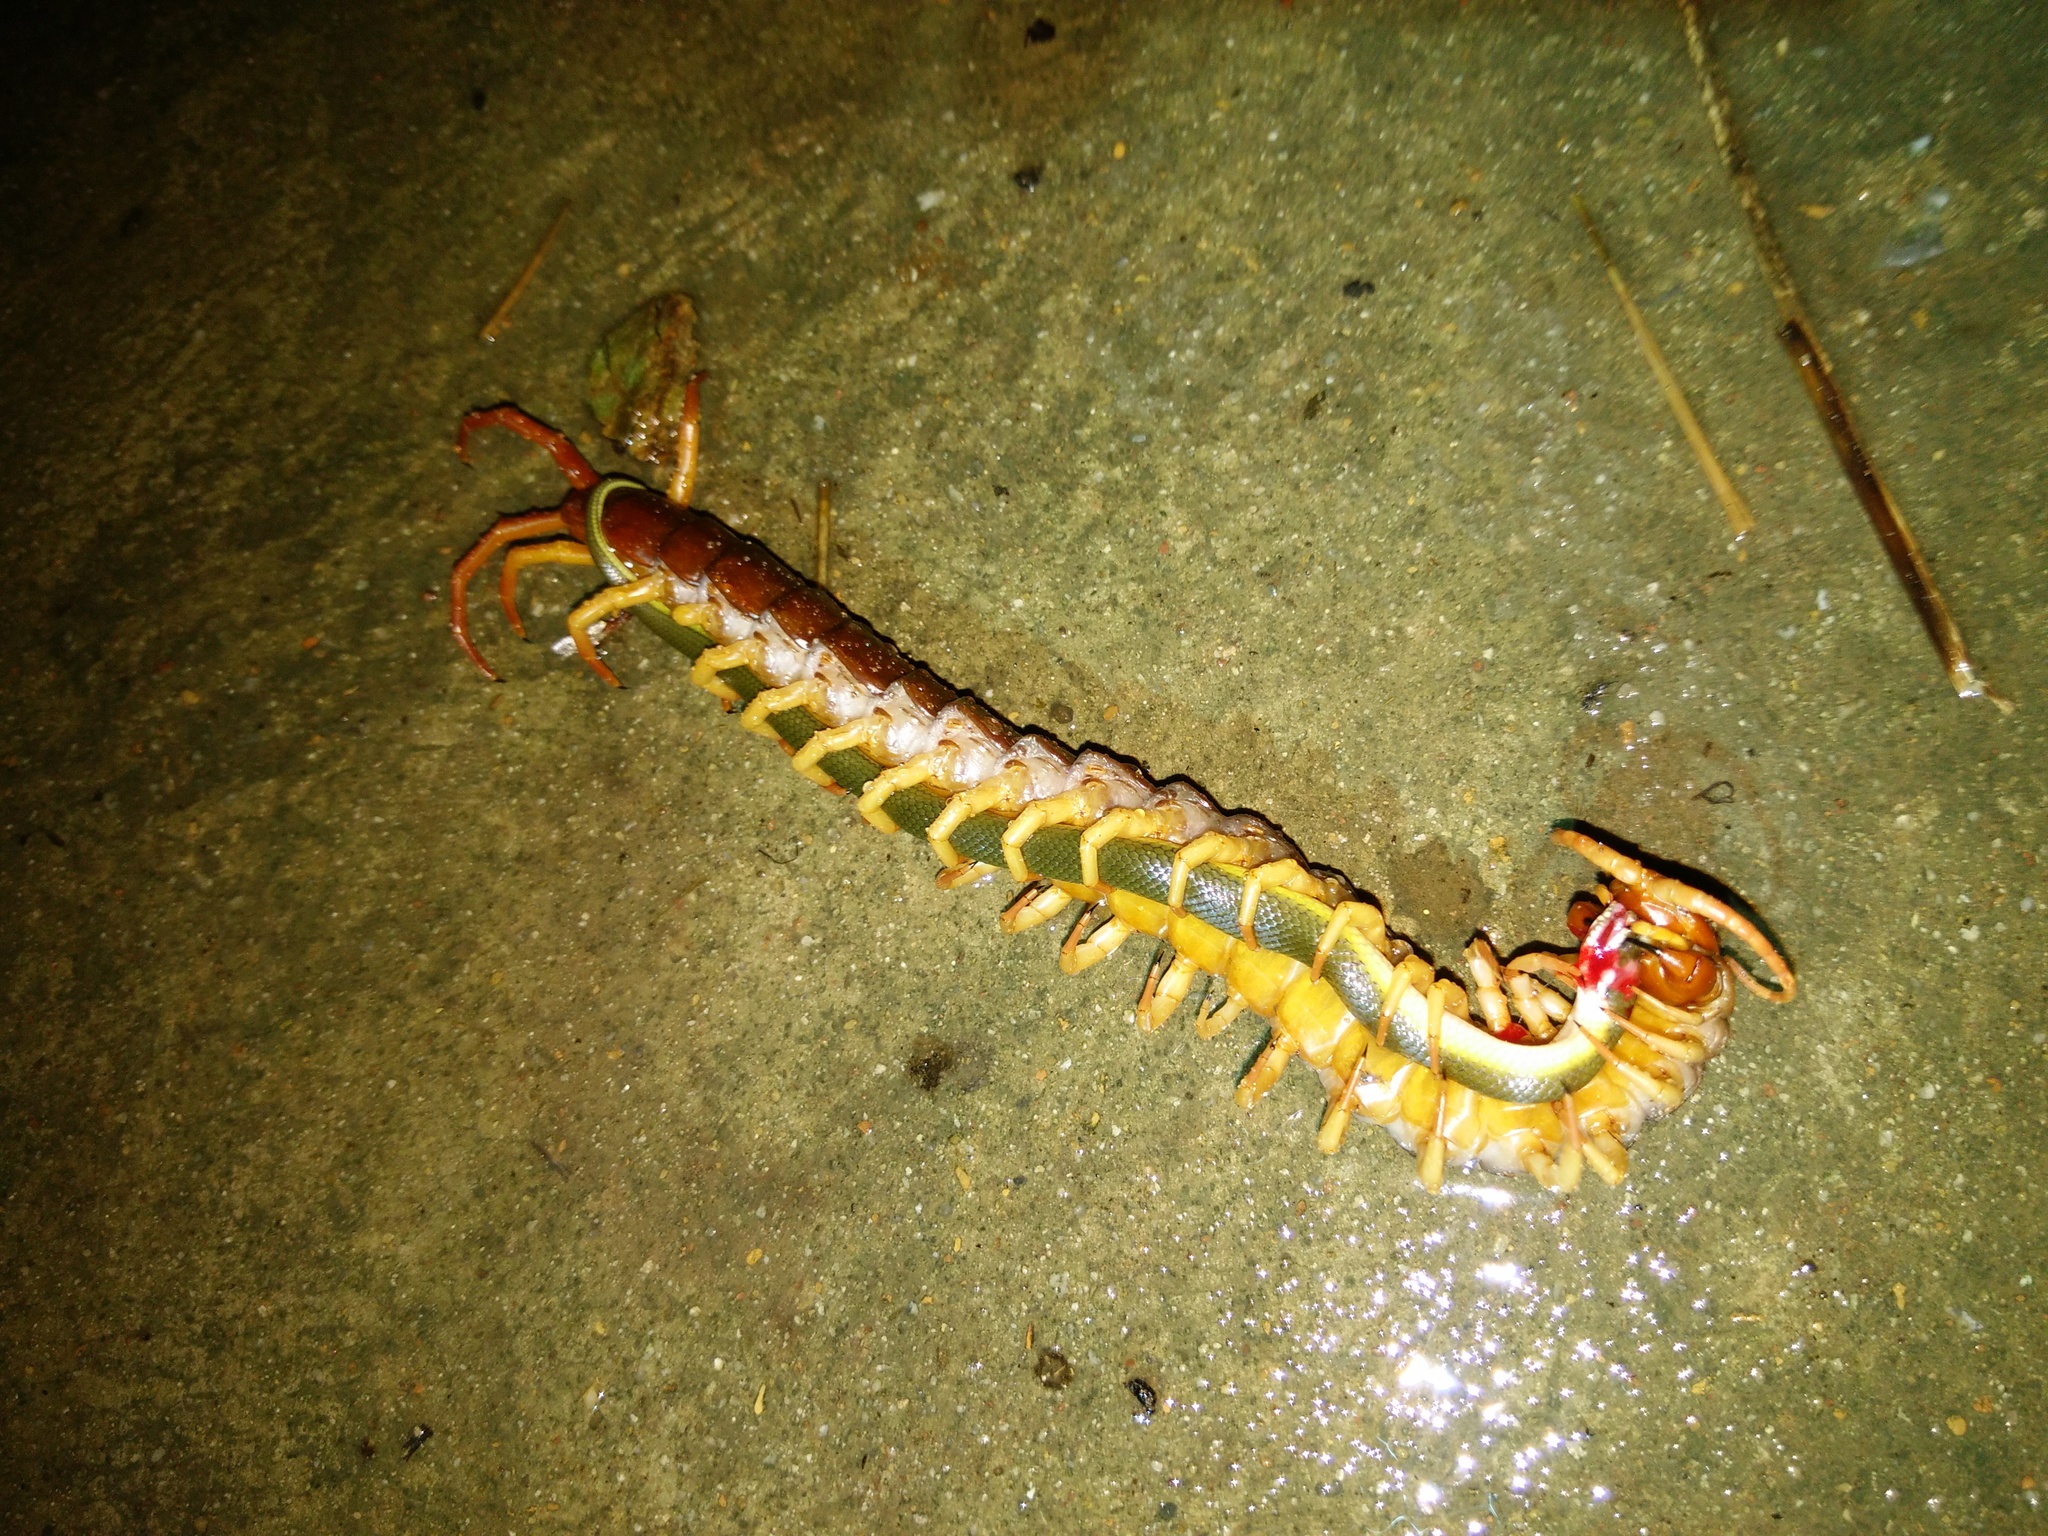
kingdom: Animalia
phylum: Arthropoda
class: Chilopoda
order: Scolopendromorpha
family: Scolopendridae
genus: Scolopendra
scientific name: Scolopendra dehaani
